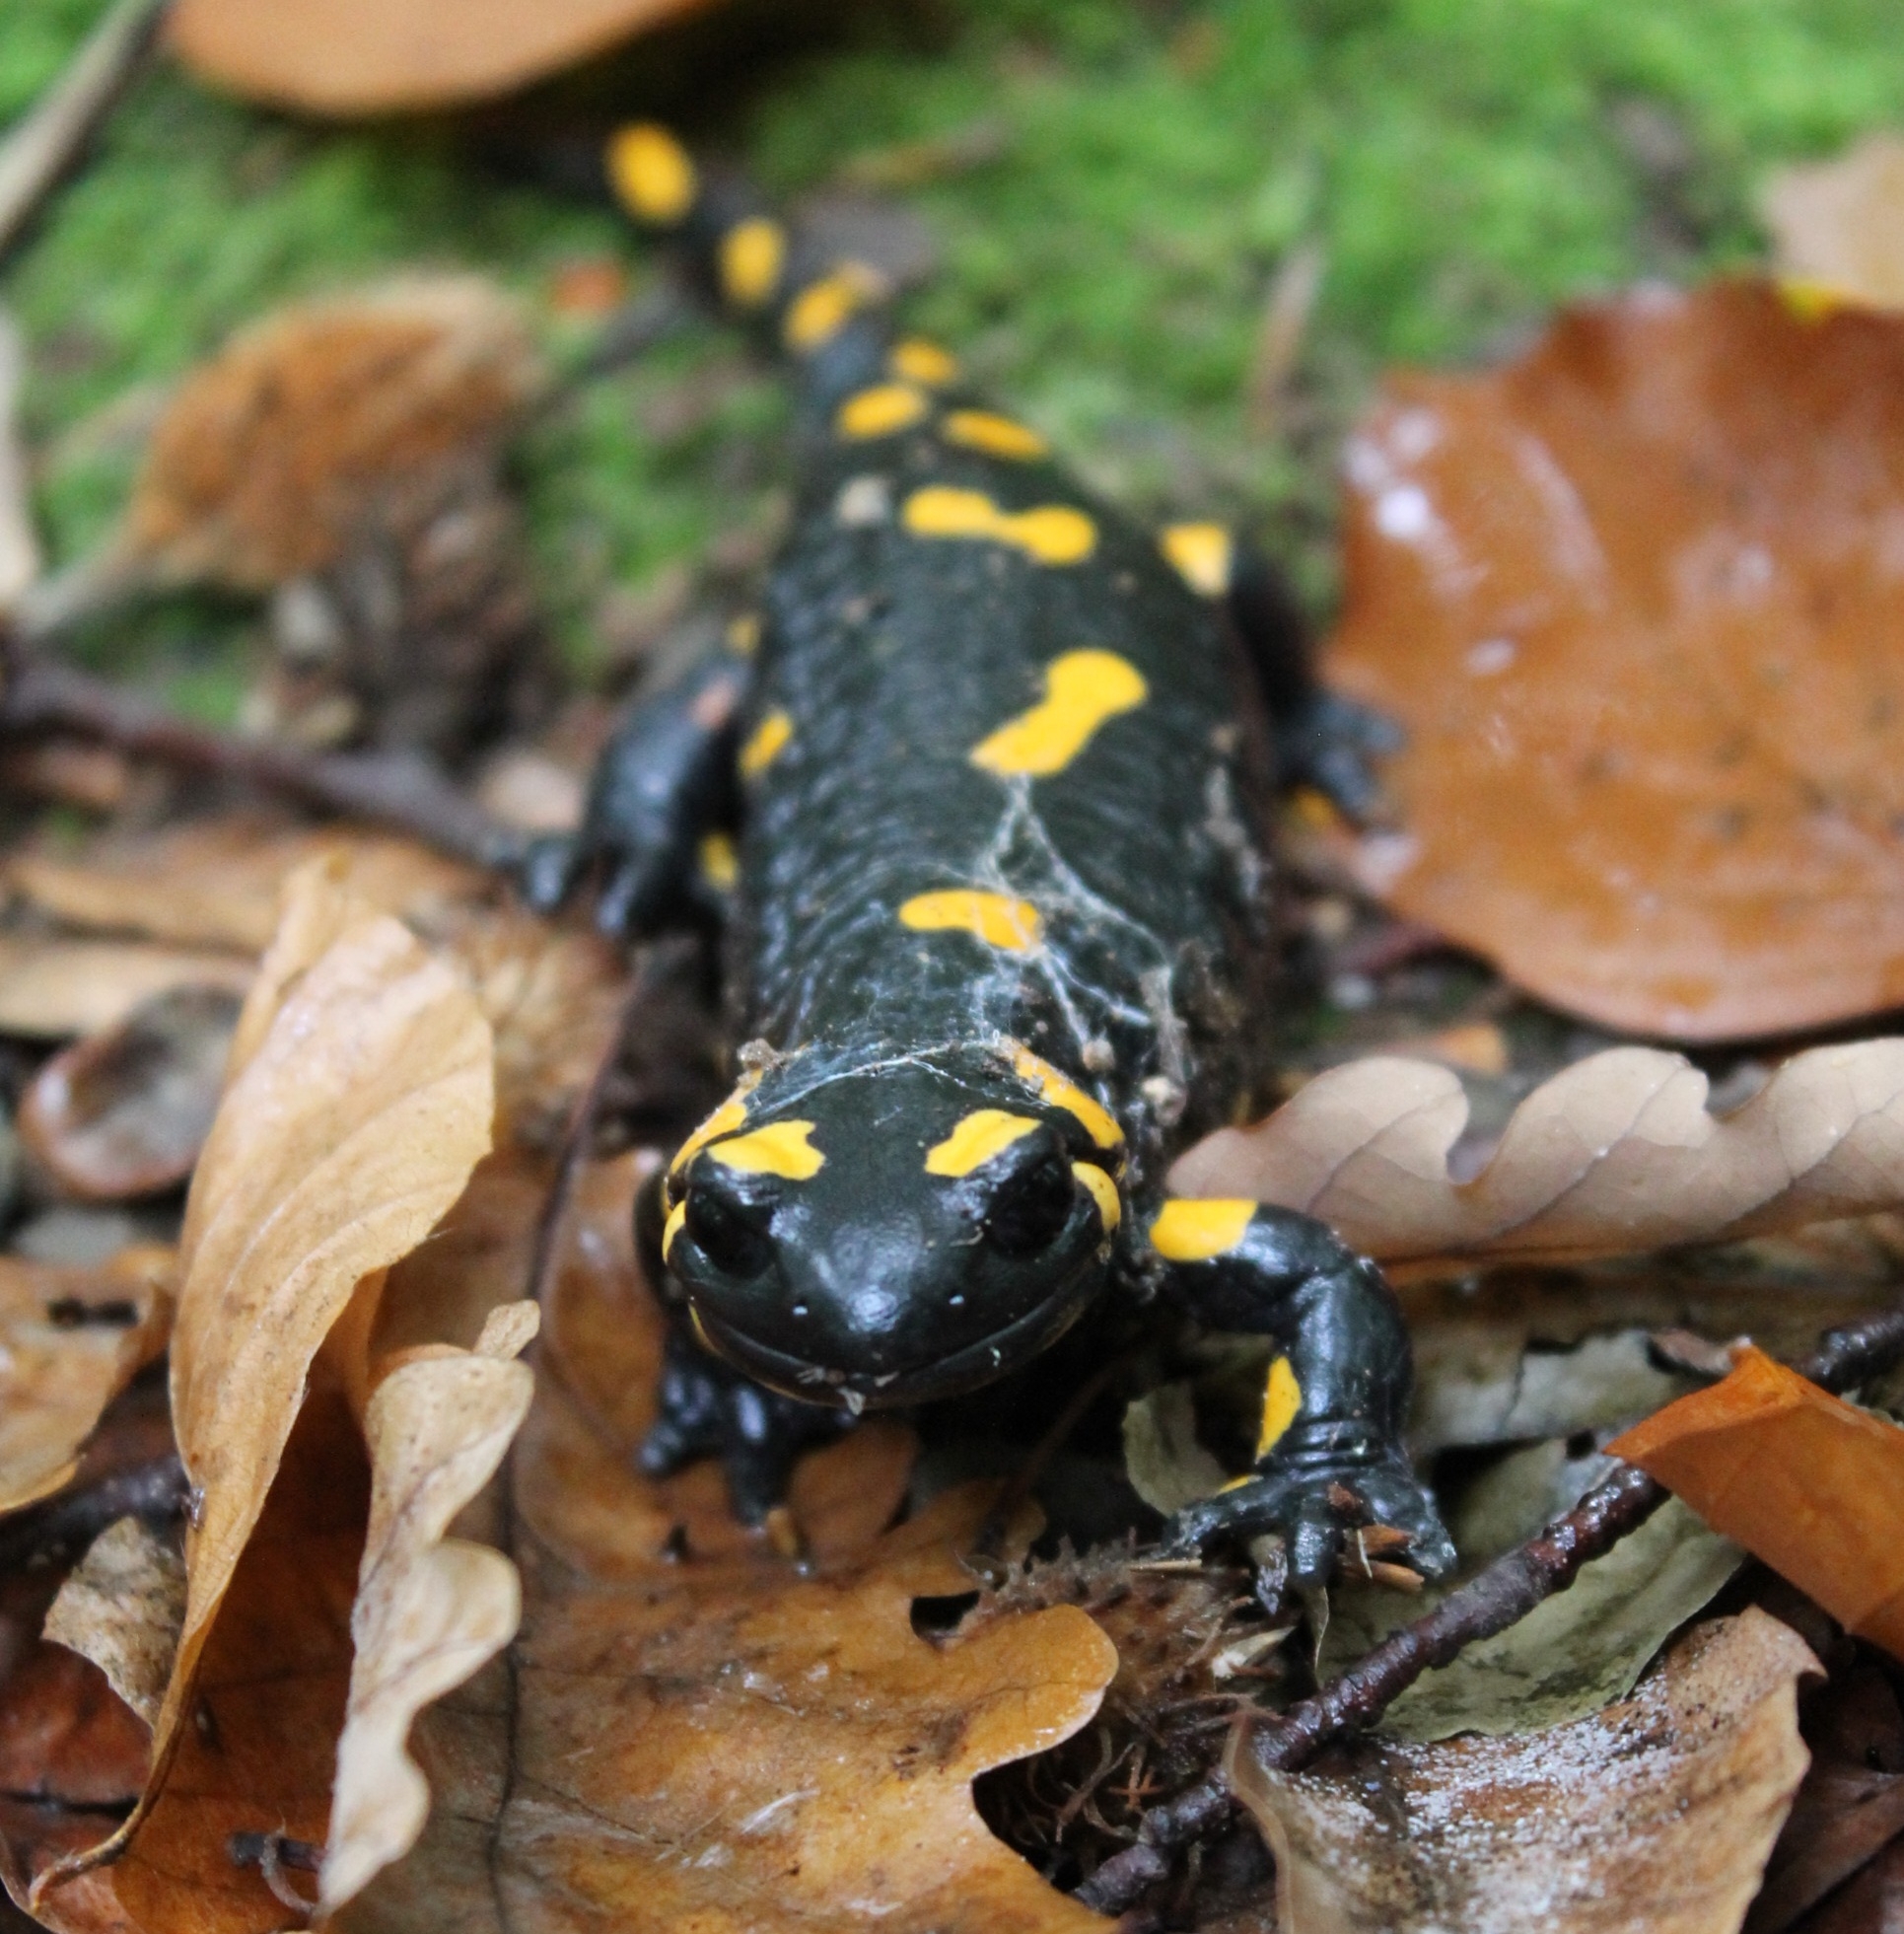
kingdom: Animalia
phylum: Chordata
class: Amphibia
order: Caudata
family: Salamandridae
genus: Salamandra
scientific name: Salamandra salamandra
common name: Fire salamander
